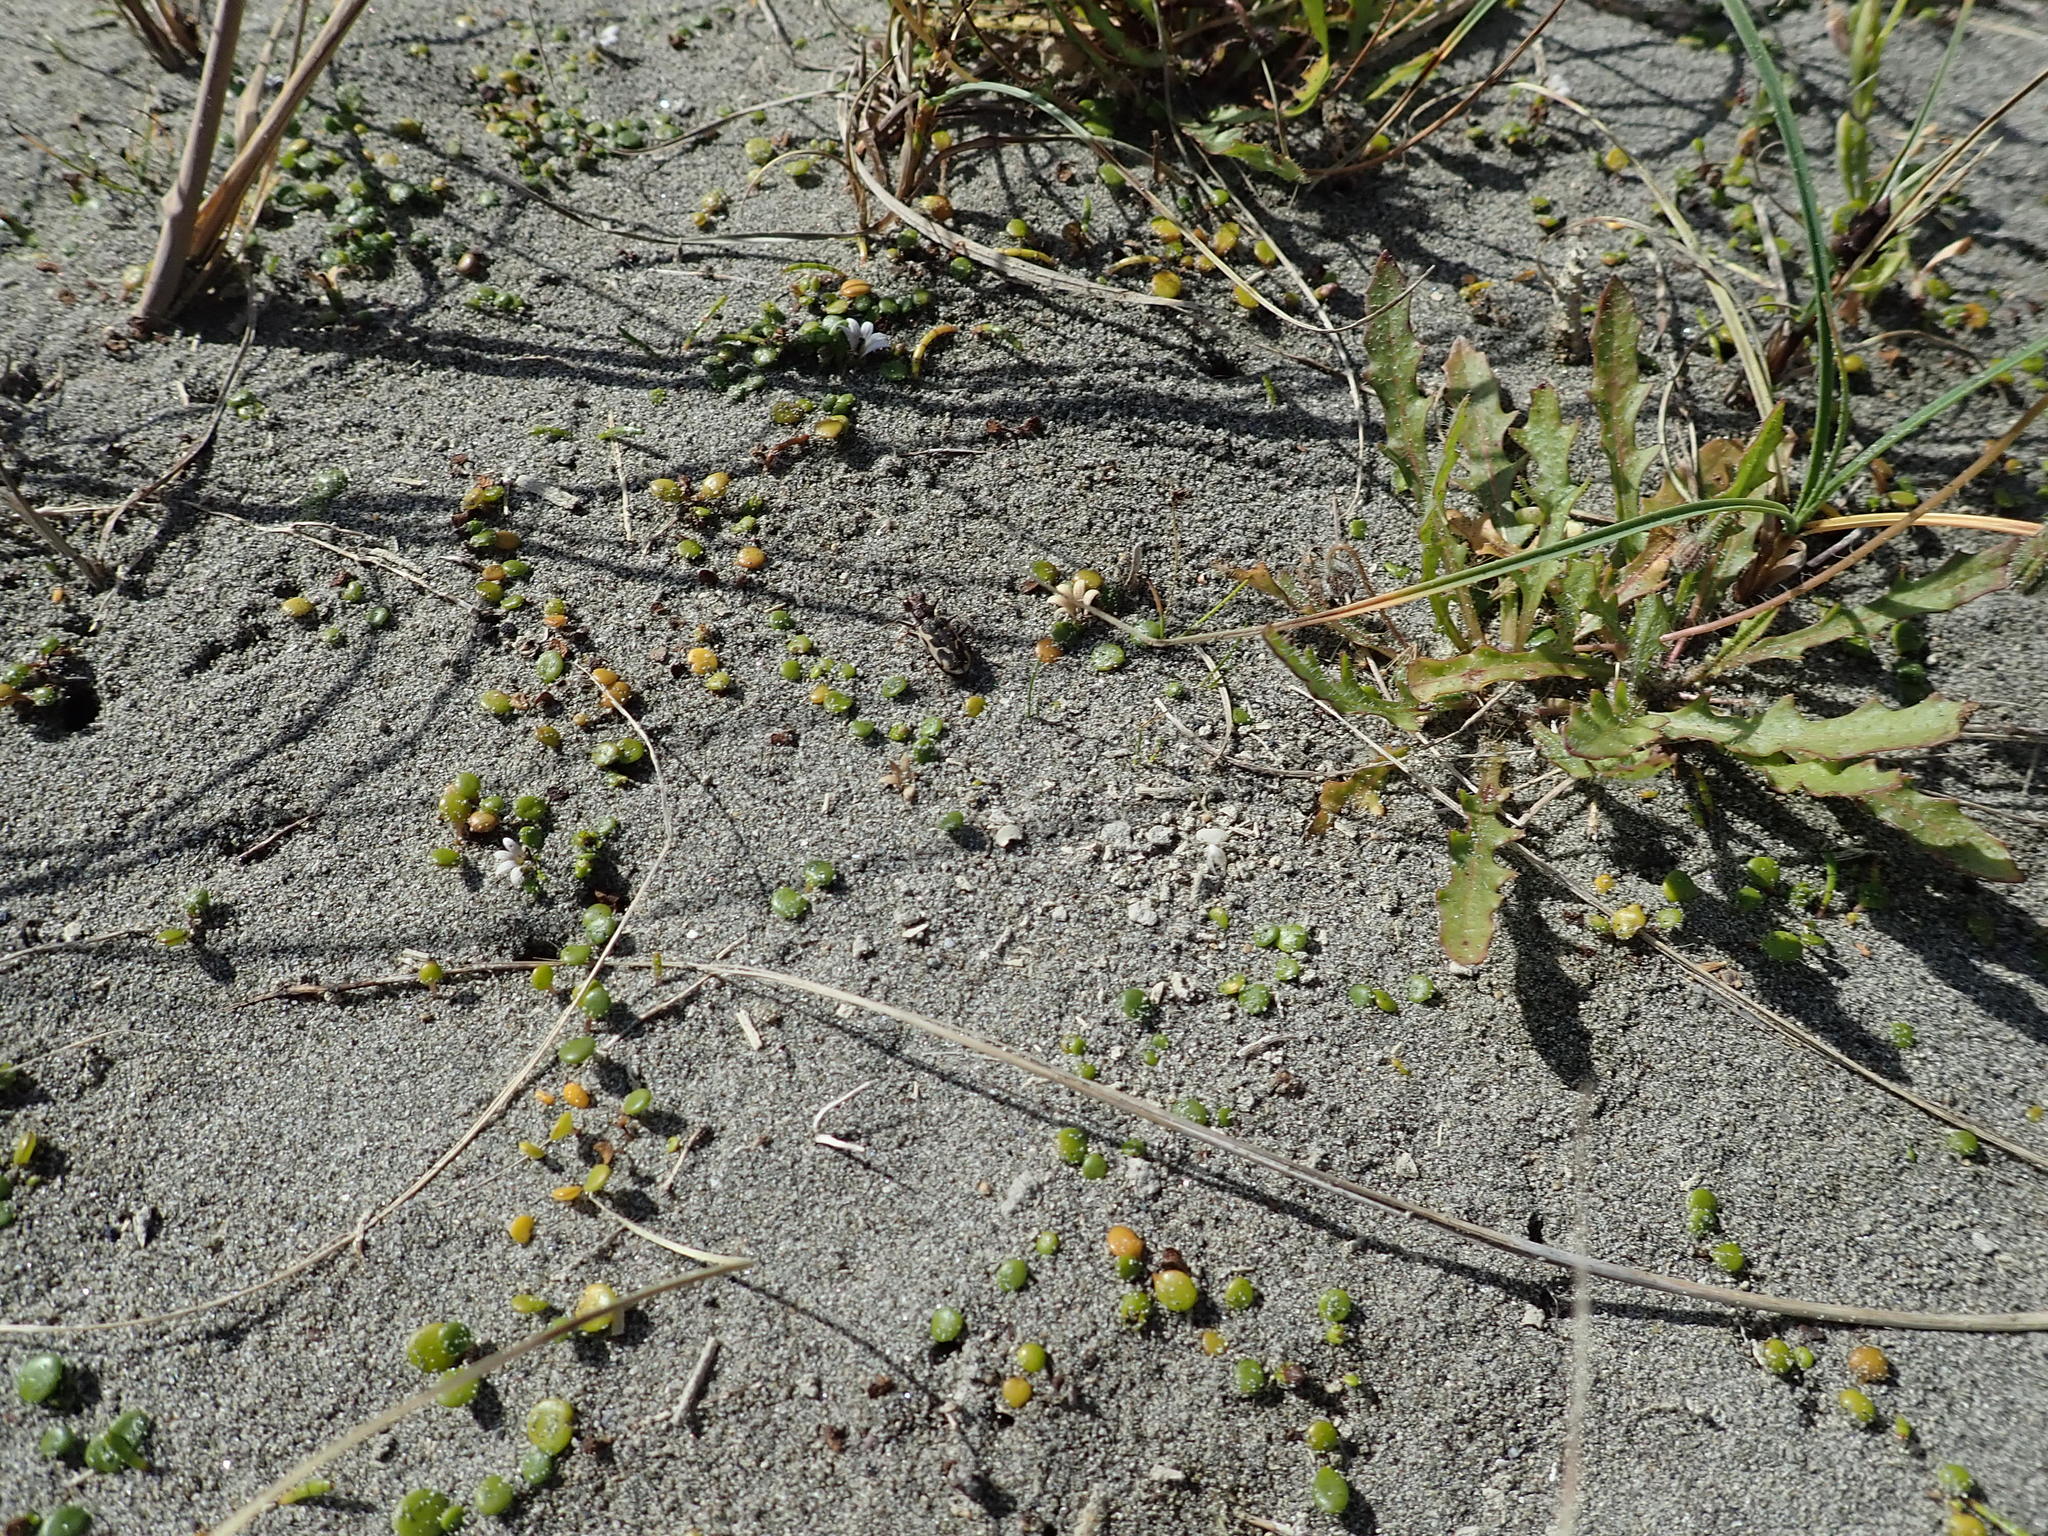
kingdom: Animalia
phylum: Arthropoda
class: Insecta
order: Coleoptera
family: Carabidae
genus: Neocicindela
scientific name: Neocicindela tuberculata
